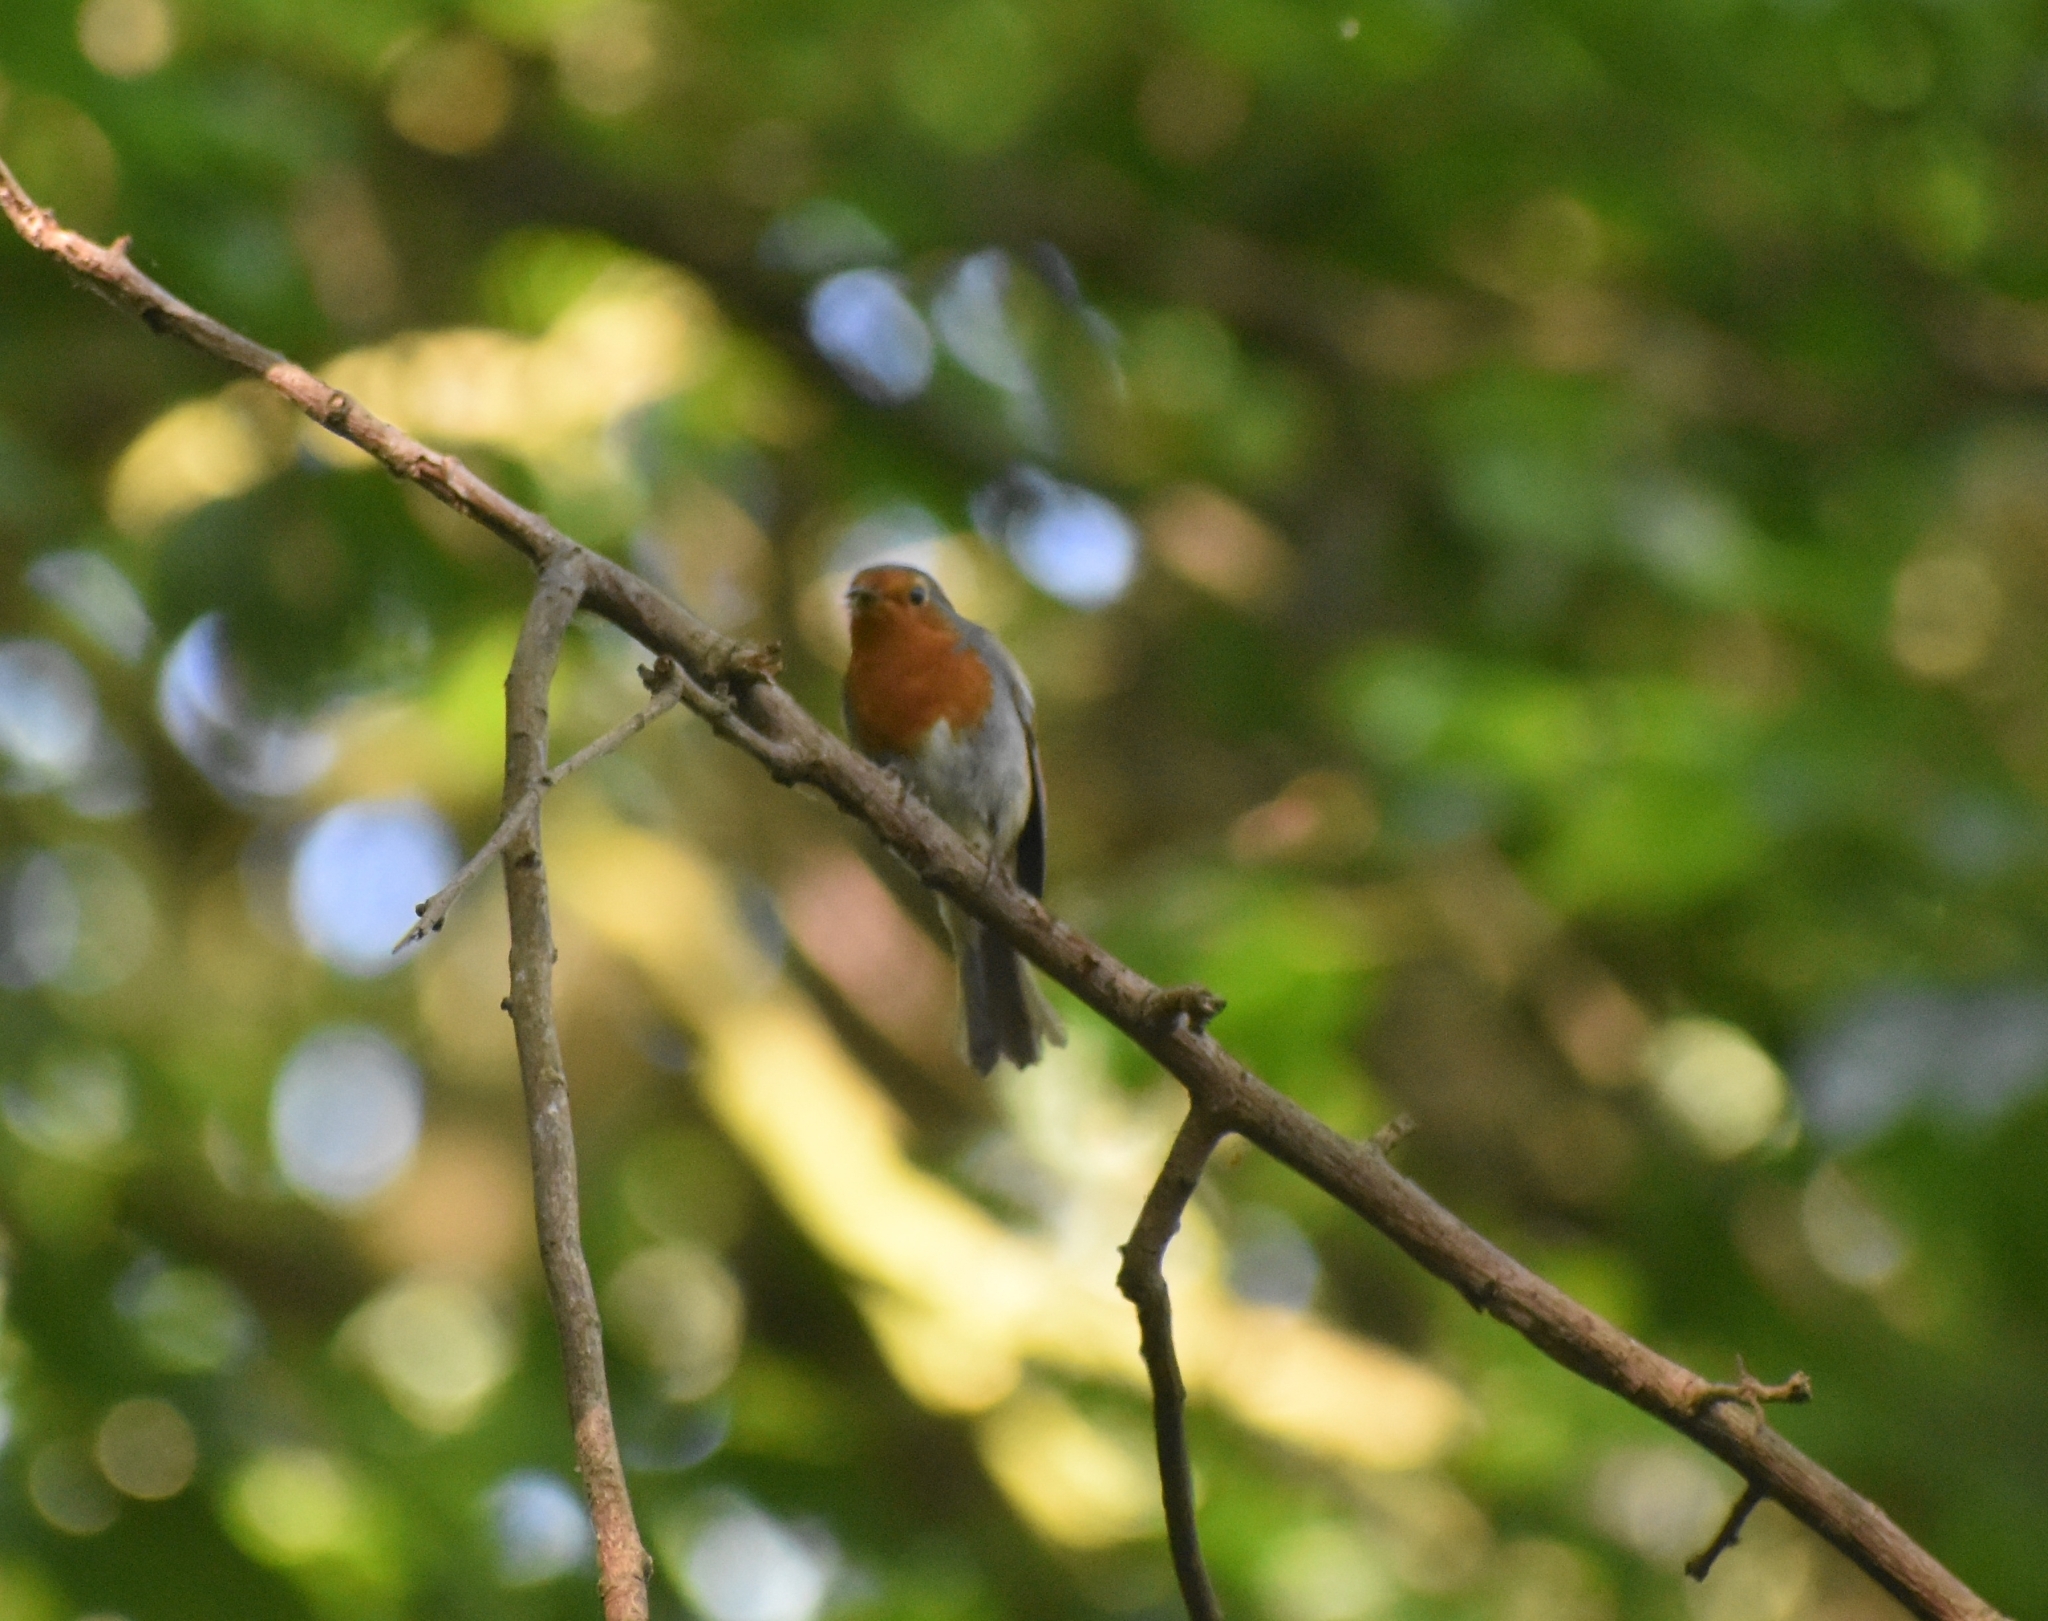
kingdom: Animalia
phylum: Chordata
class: Aves
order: Passeriformes
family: Muscicapidae
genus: Erithacus
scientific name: Erithacus rubecula
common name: European robin
